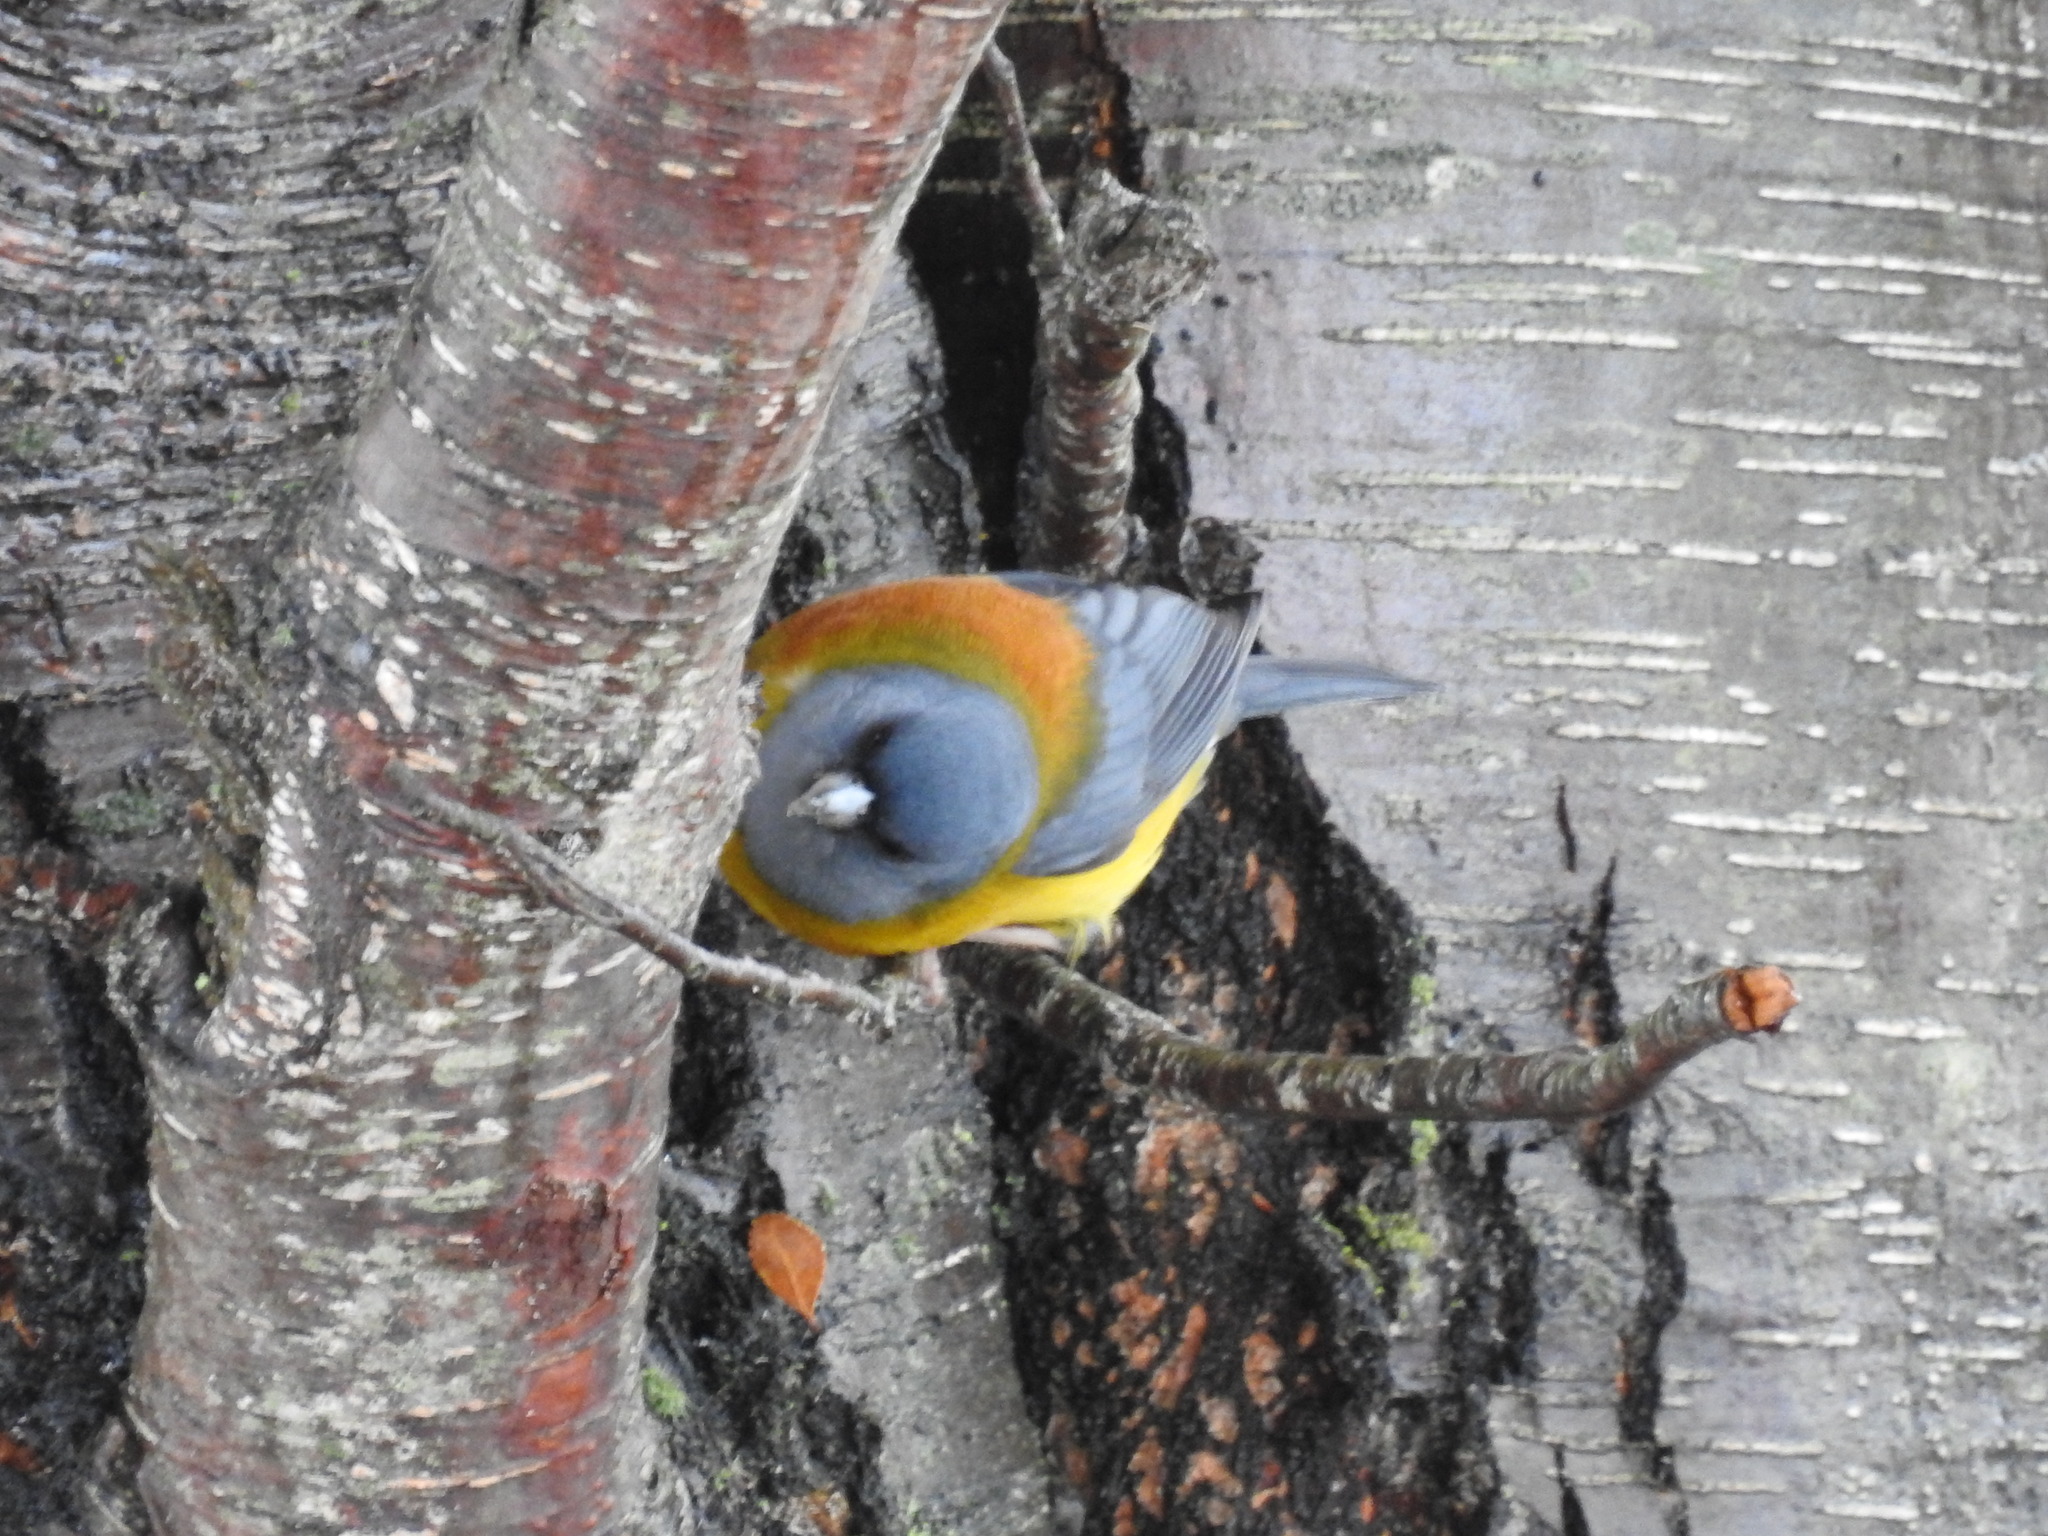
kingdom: Animalia
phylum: Chordata
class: Aves
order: Passeriformes
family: Thraupidae
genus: Phrygilus
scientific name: Phrygilus patagonicus
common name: Patagonian sierra finch
